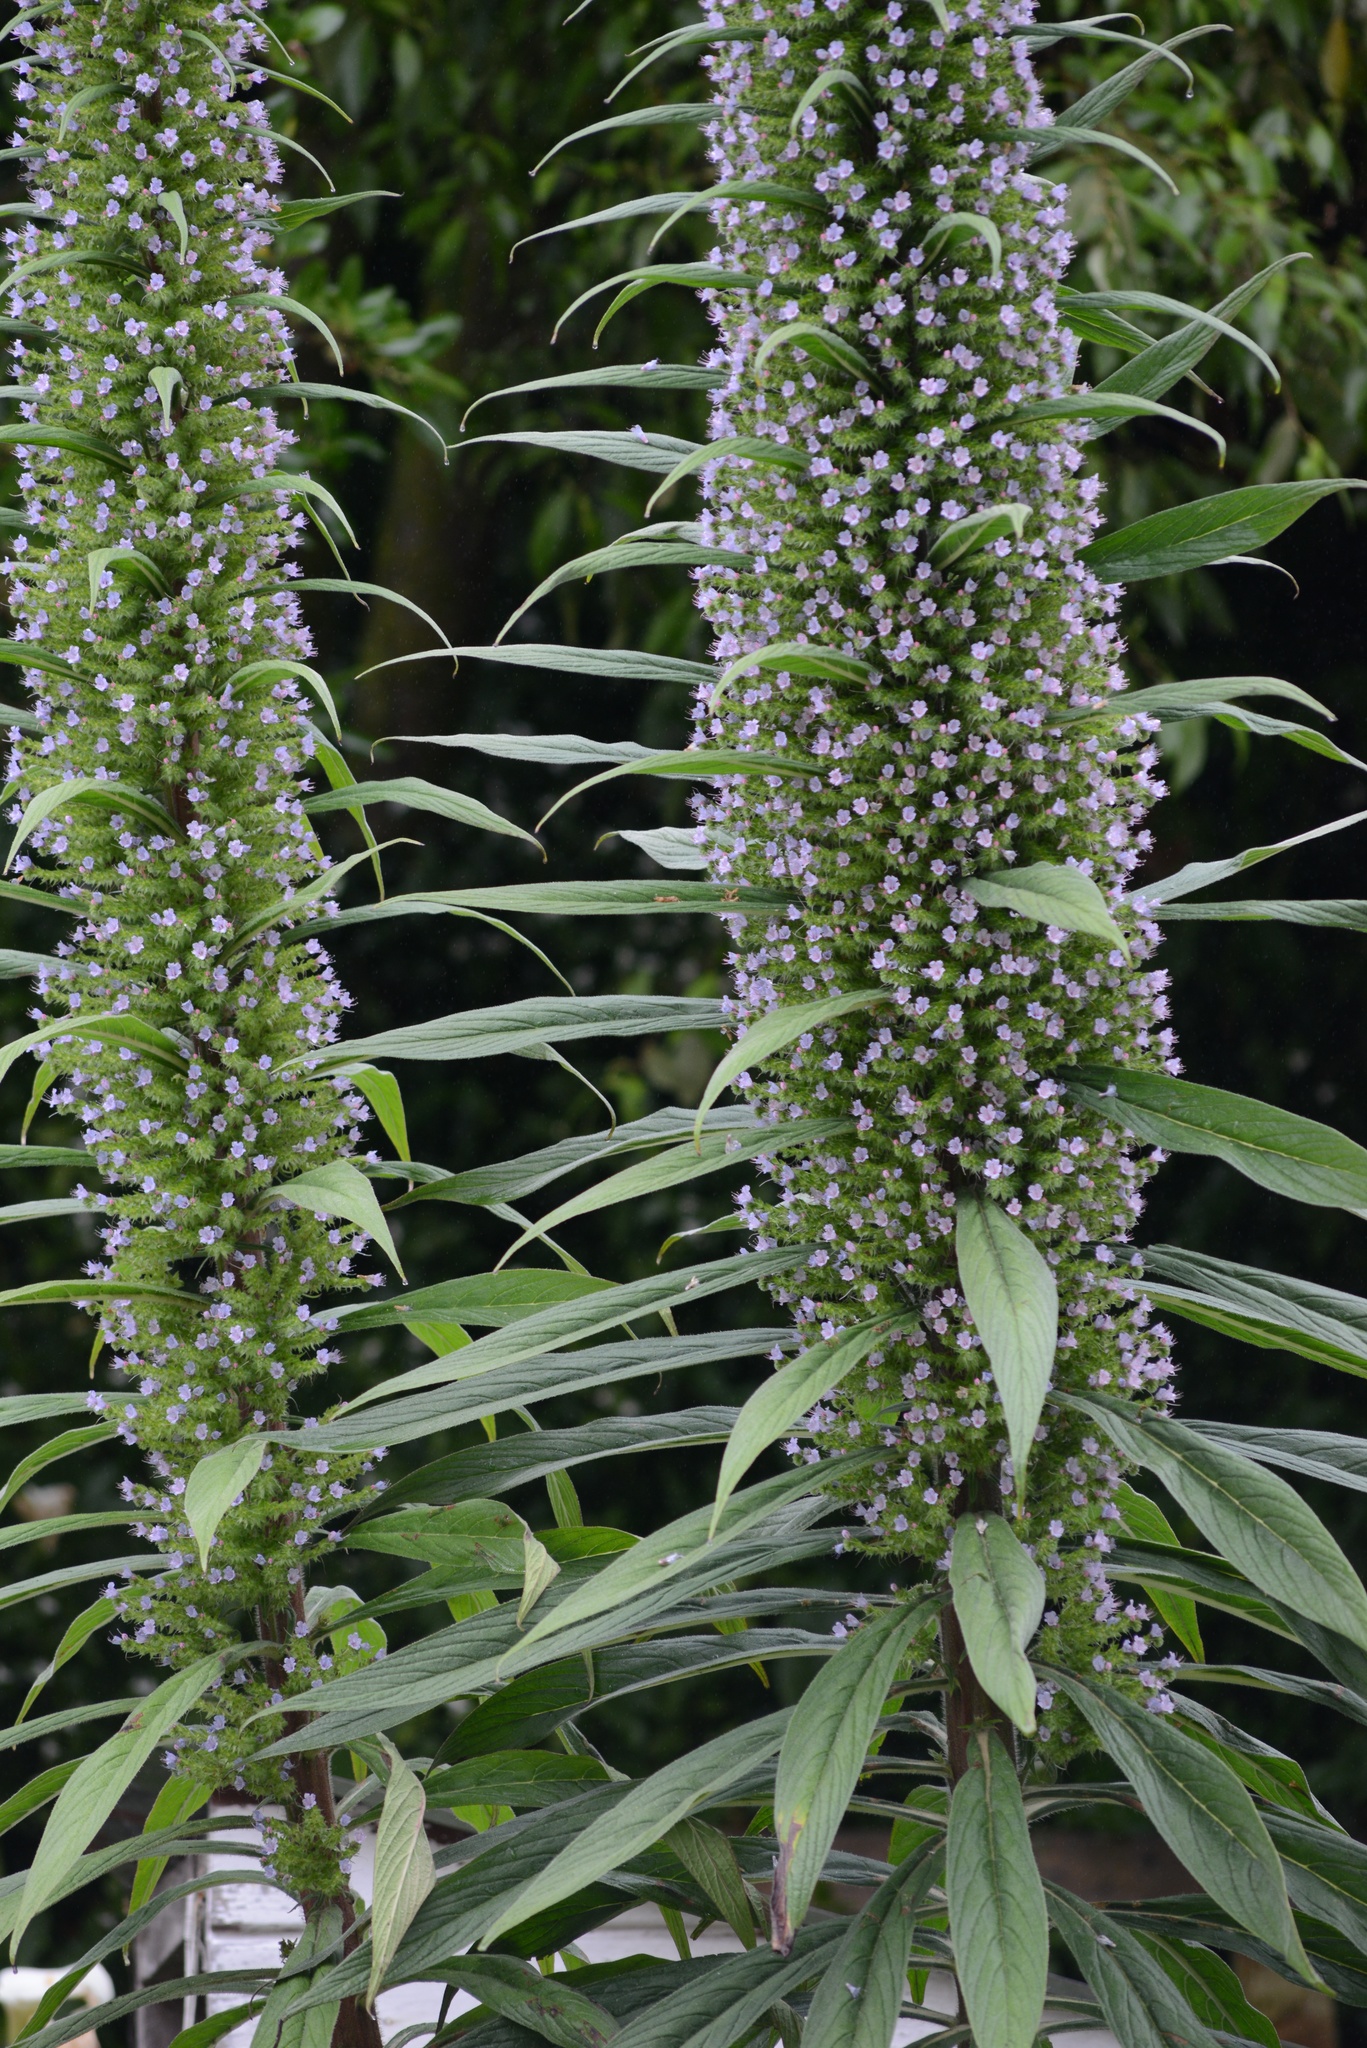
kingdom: Plantae
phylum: Tracheophyta
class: Magnoliopsida
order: Boraginales
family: Boraginaceae
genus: Echium
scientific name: Echium pininana
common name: Giant viper's-bugloss
